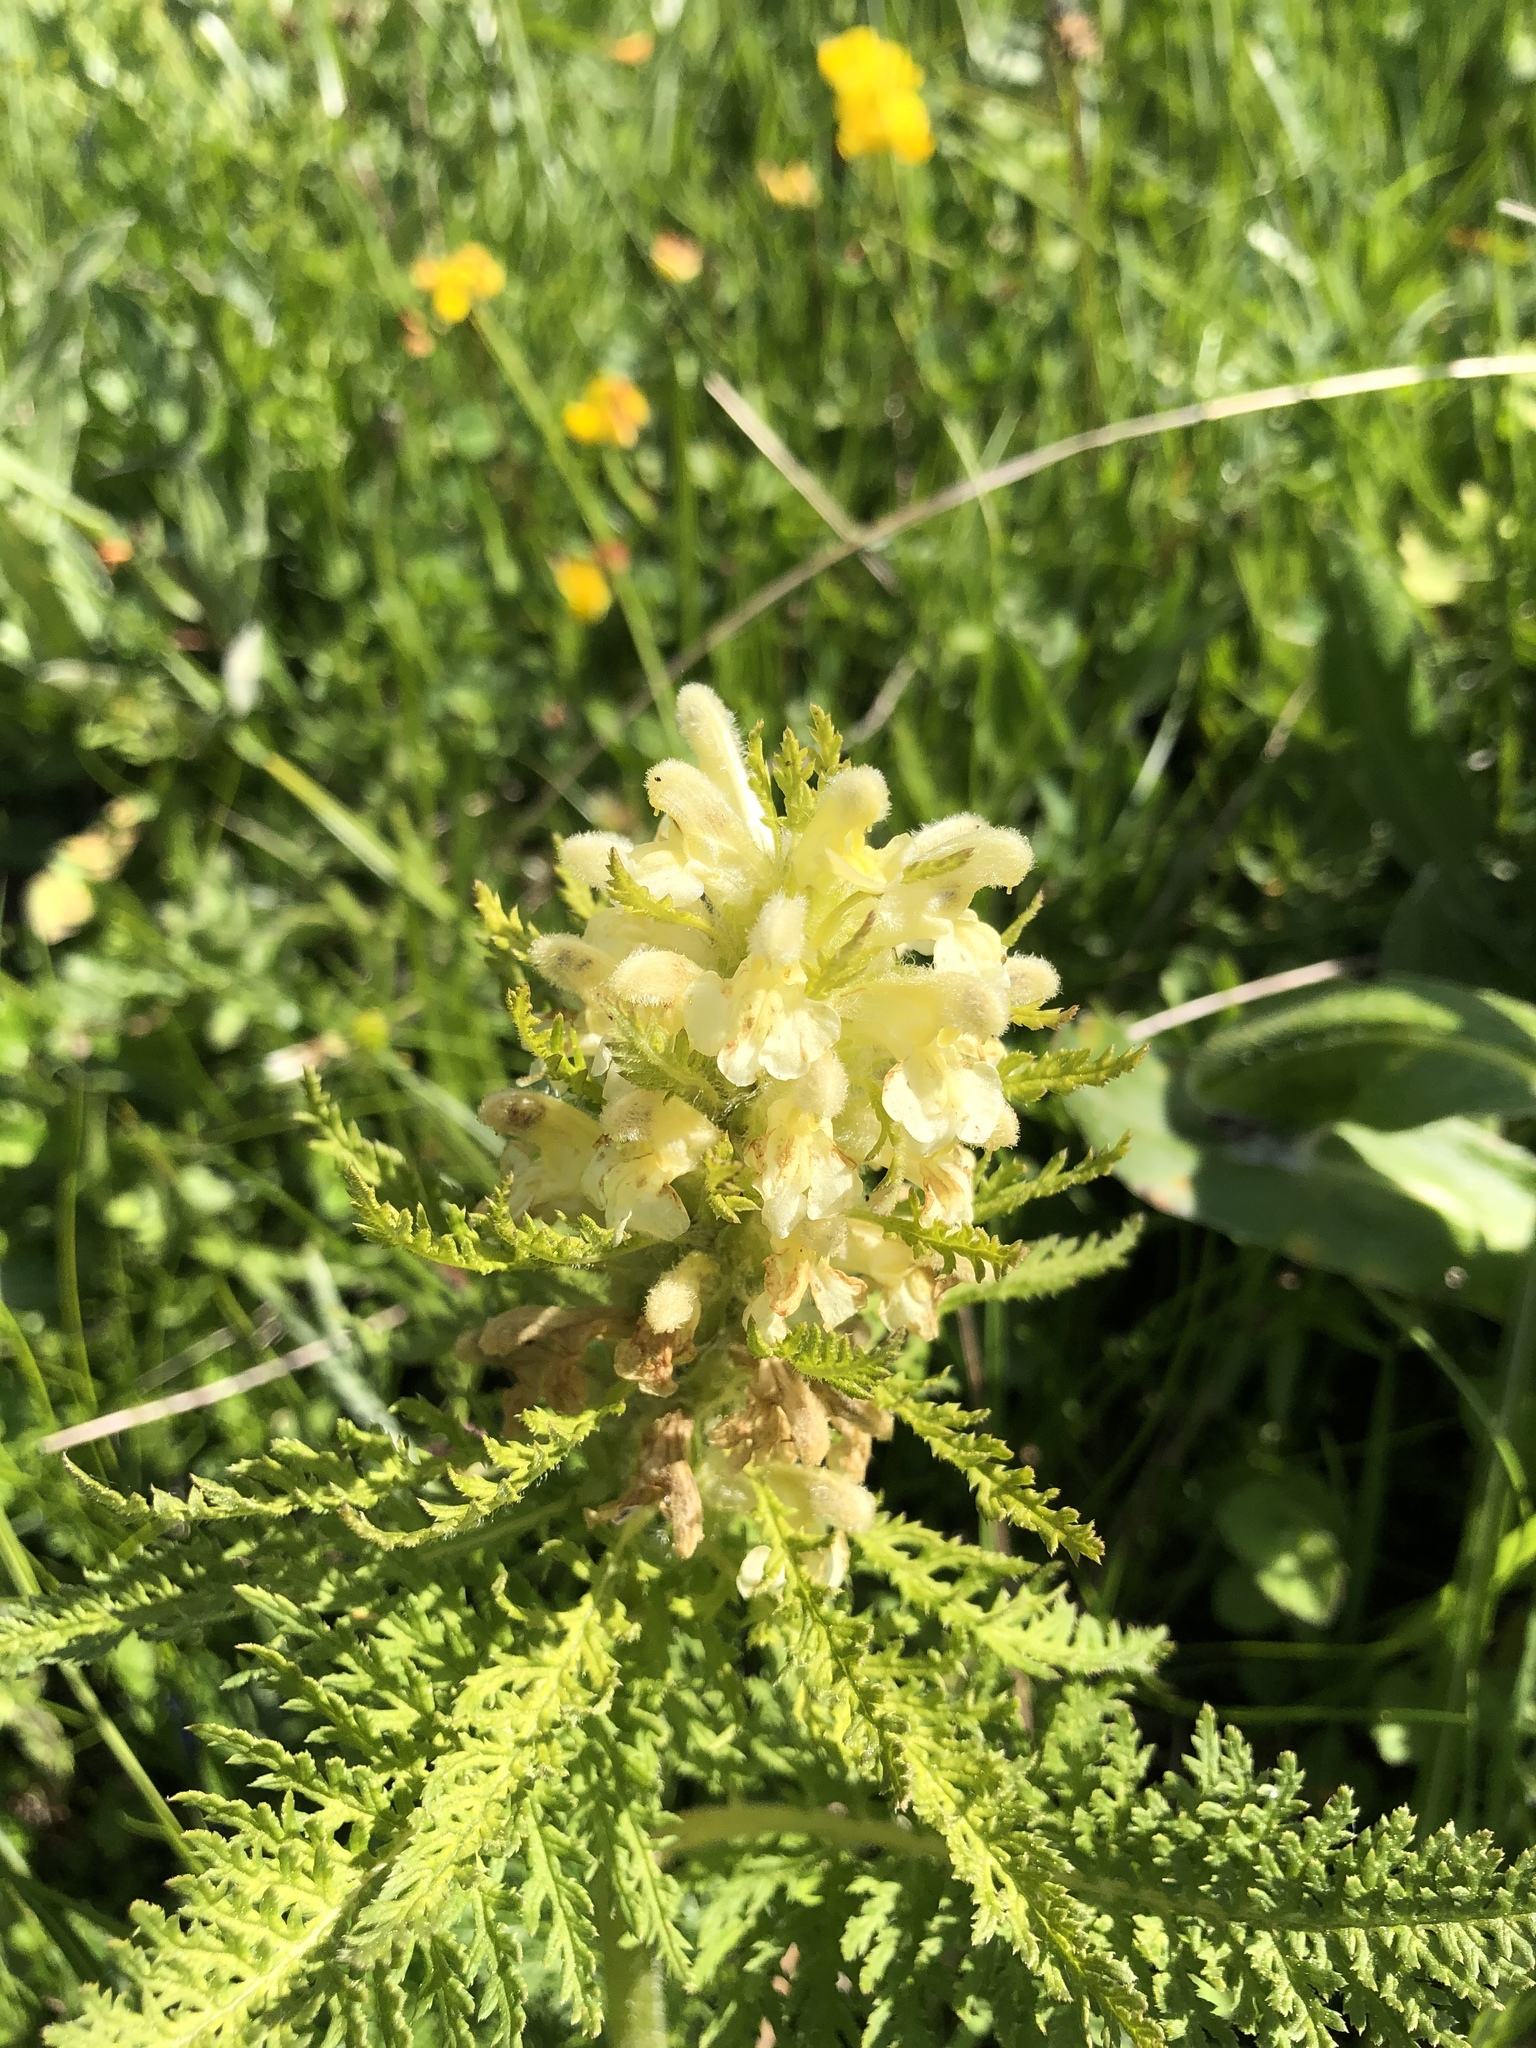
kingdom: Plantae
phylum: Tracheophyta
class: Magnoliopsida
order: Lamiales
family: Orobanchaceae
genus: Pedicularis
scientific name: Pedicularis foliosa
